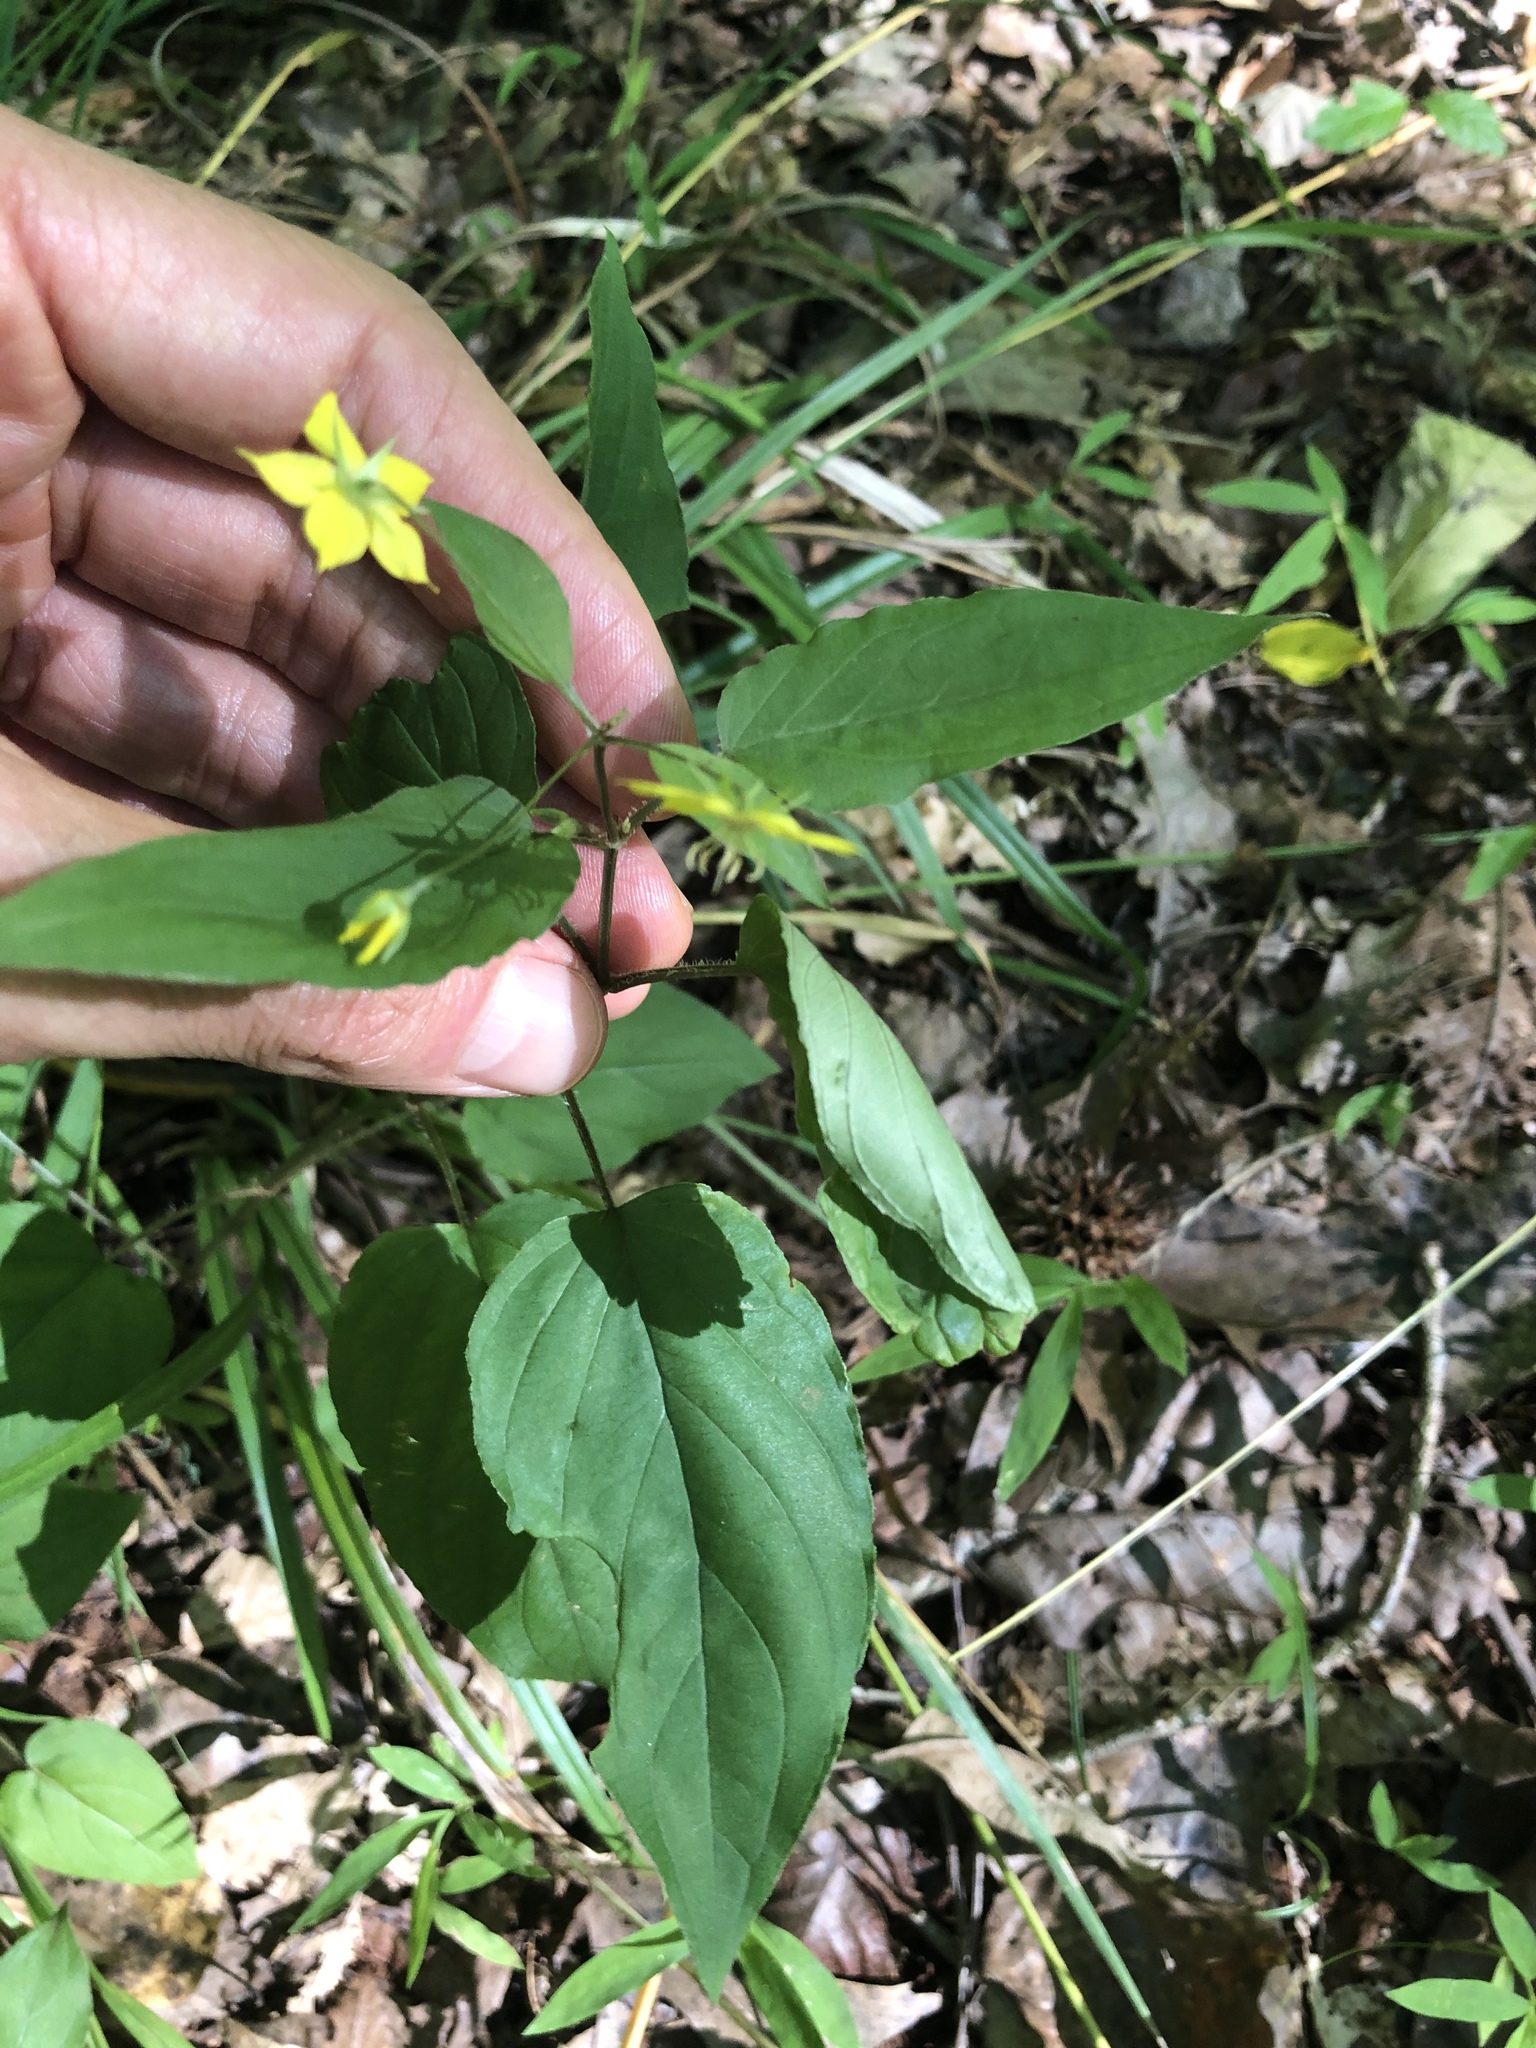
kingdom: Plantae
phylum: Tracheophyta
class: Magnoliopsida
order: Ericales
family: Primulaceae
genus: Lysimachia
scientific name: Lysimachia ciliata
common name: Fringed loosestrife
